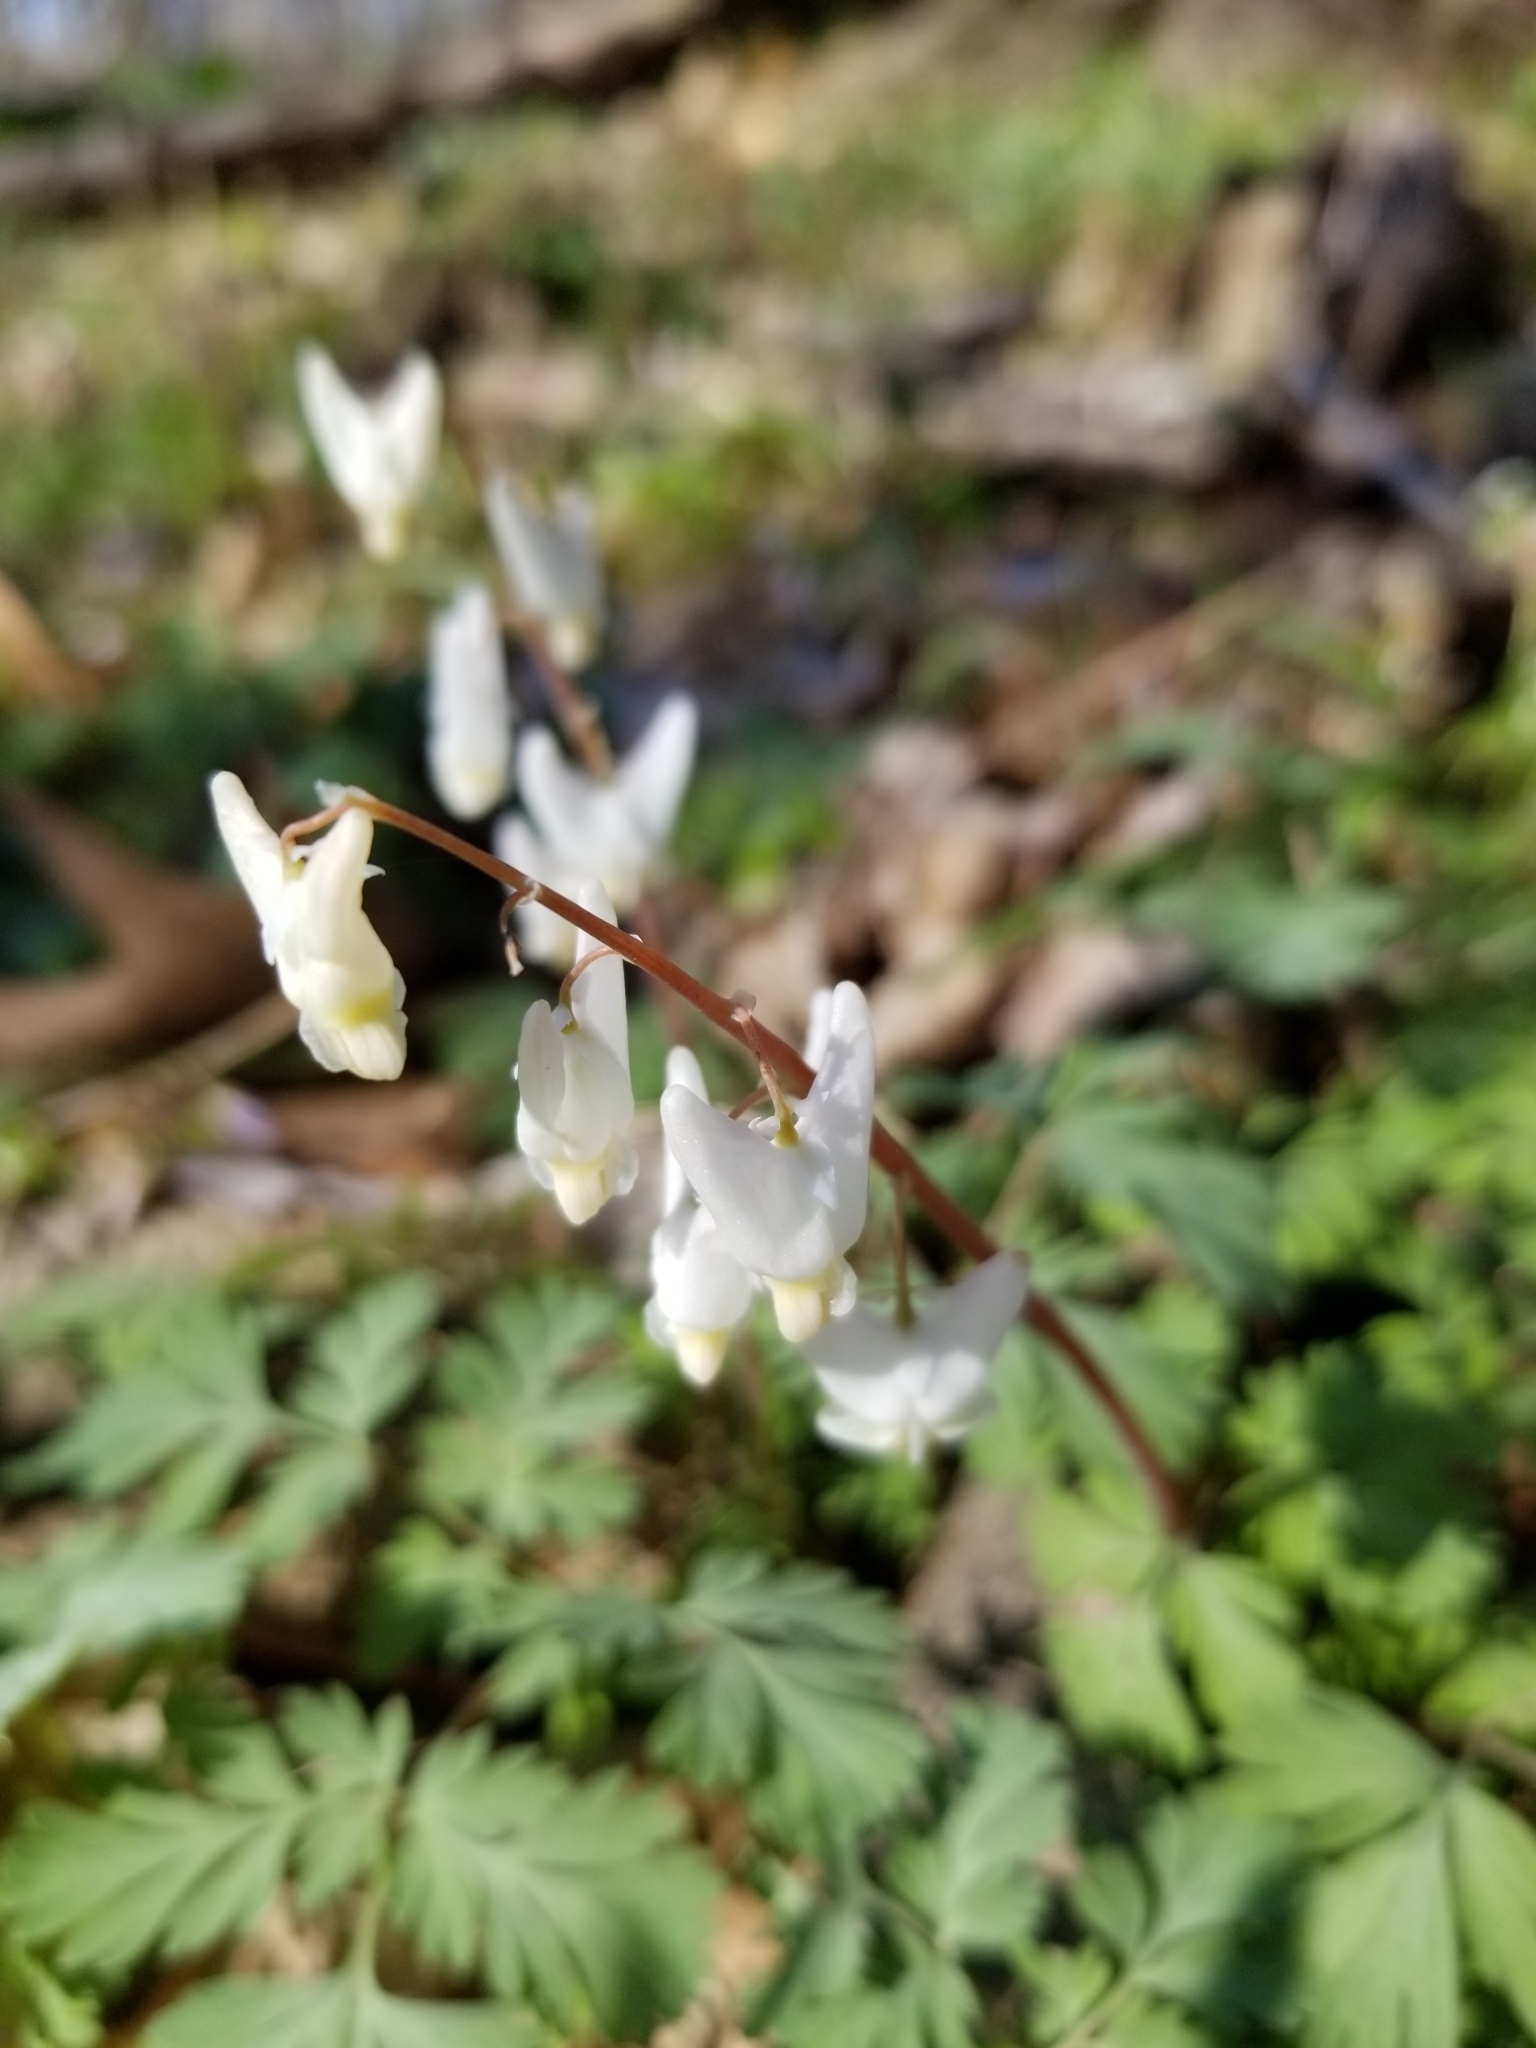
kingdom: Plantae
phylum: Tracheophyta
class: Magnoliopsida
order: Ranunculales
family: Papaveraceae
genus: Dicentra
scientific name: Dicentra cucullaria
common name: Dutchman's breeches
